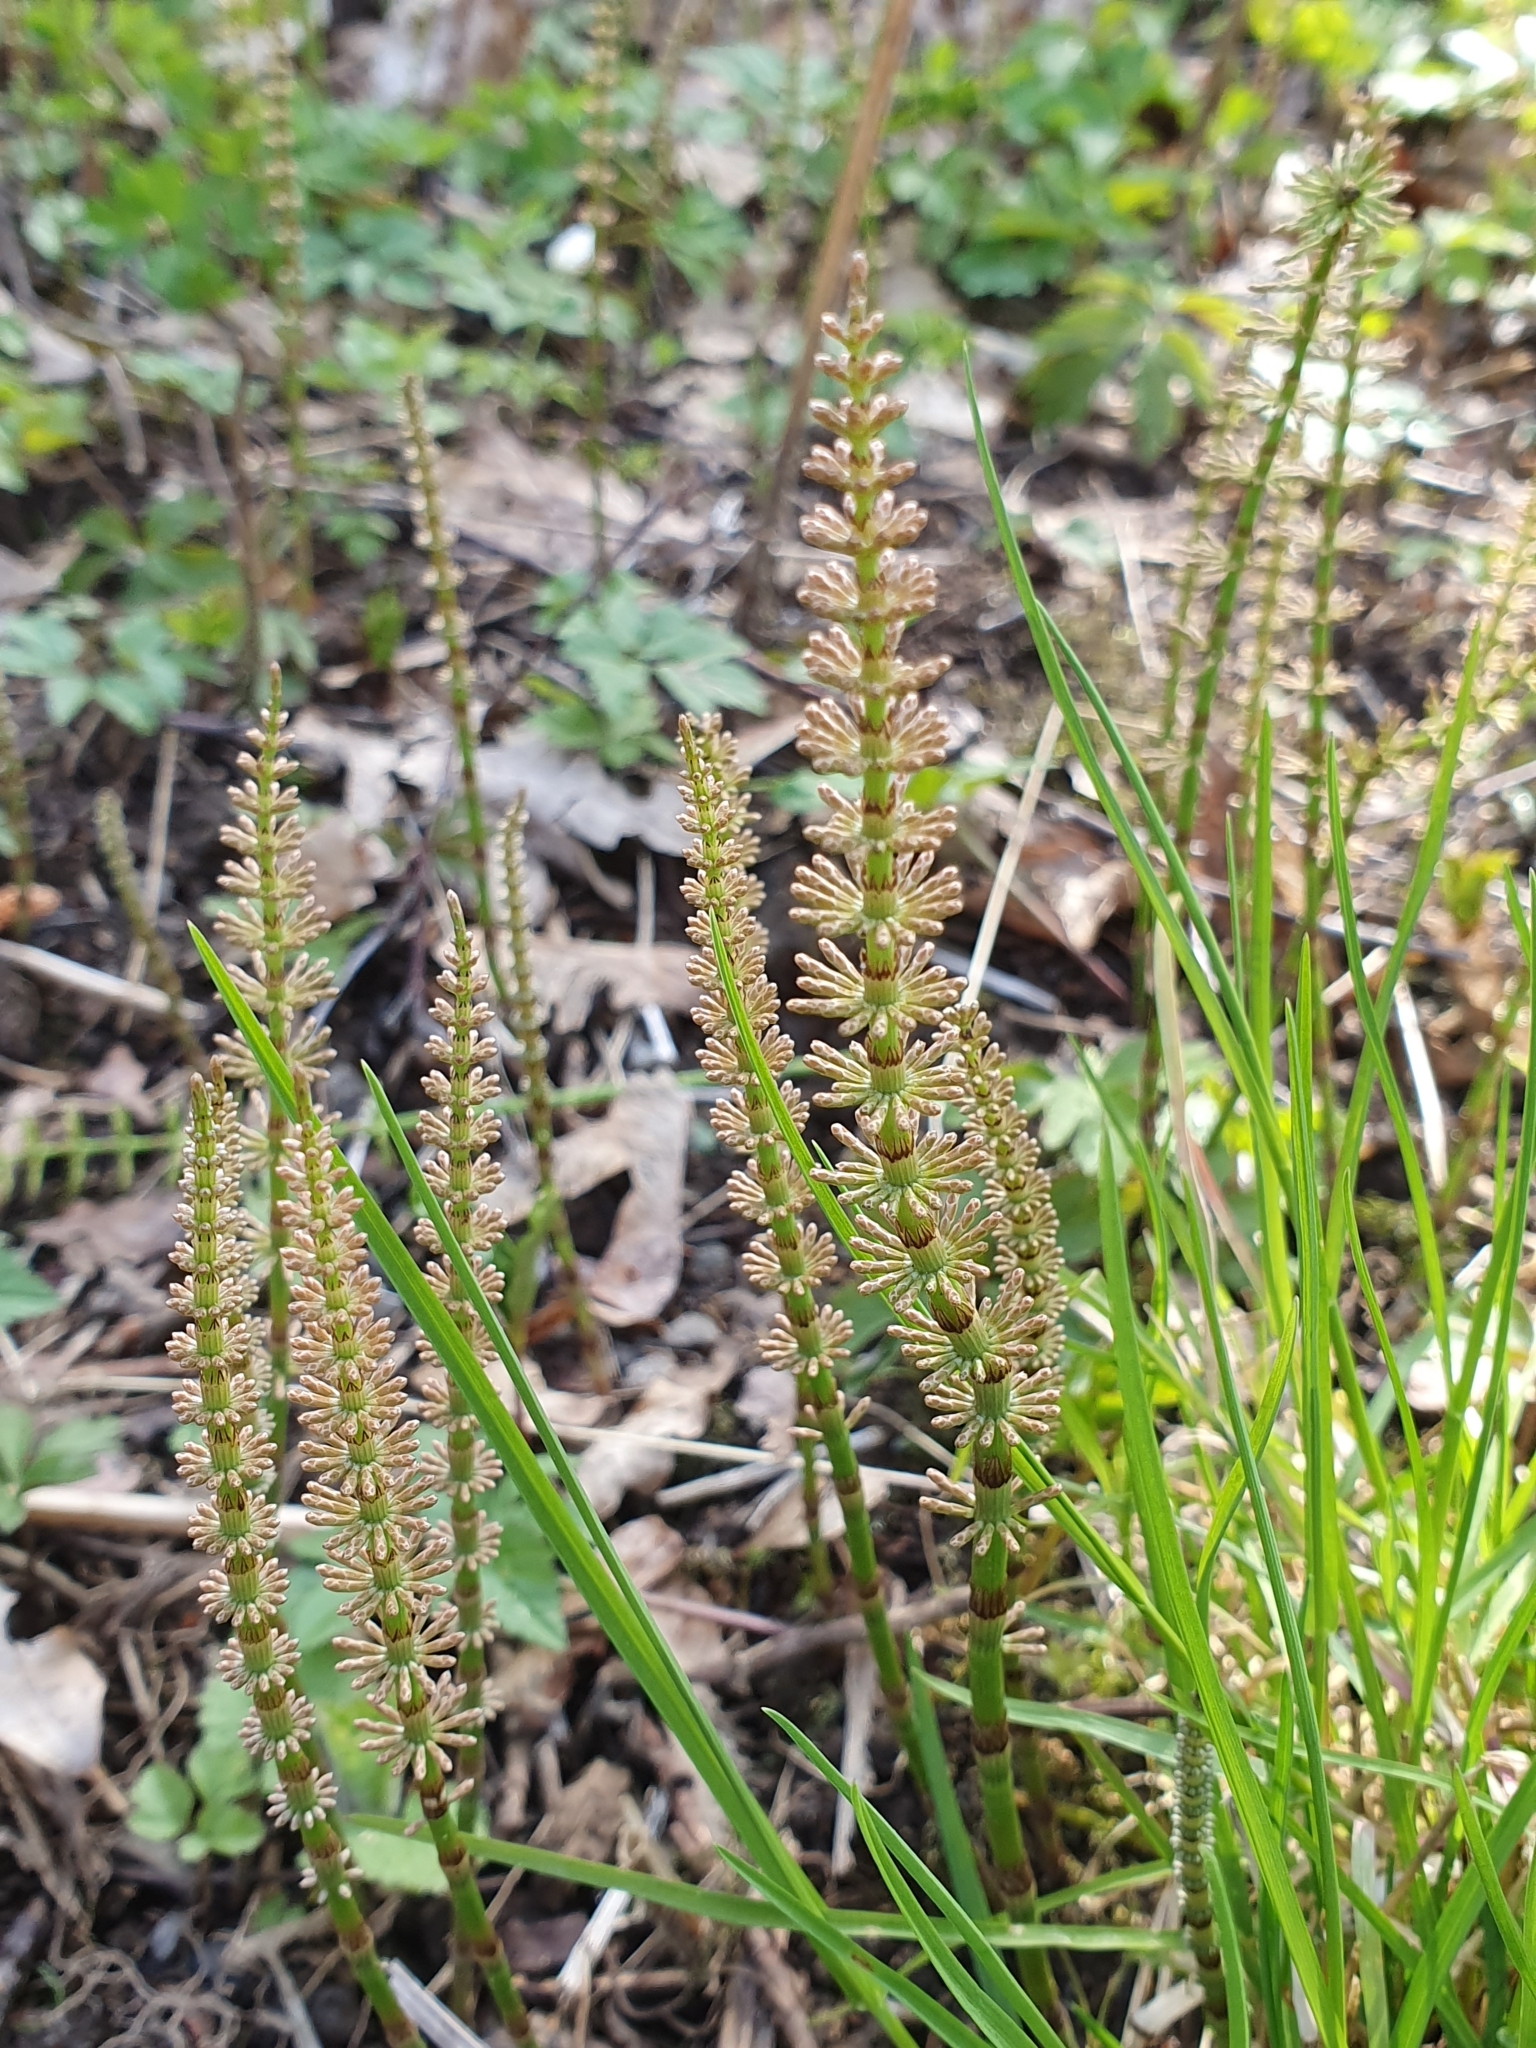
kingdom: Plantae
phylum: Tracheophyta
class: Polypodiopsida
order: Equisetales
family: Equisetaceae
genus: Equisetum
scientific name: Equisetum pratense
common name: Meadow horsetail
